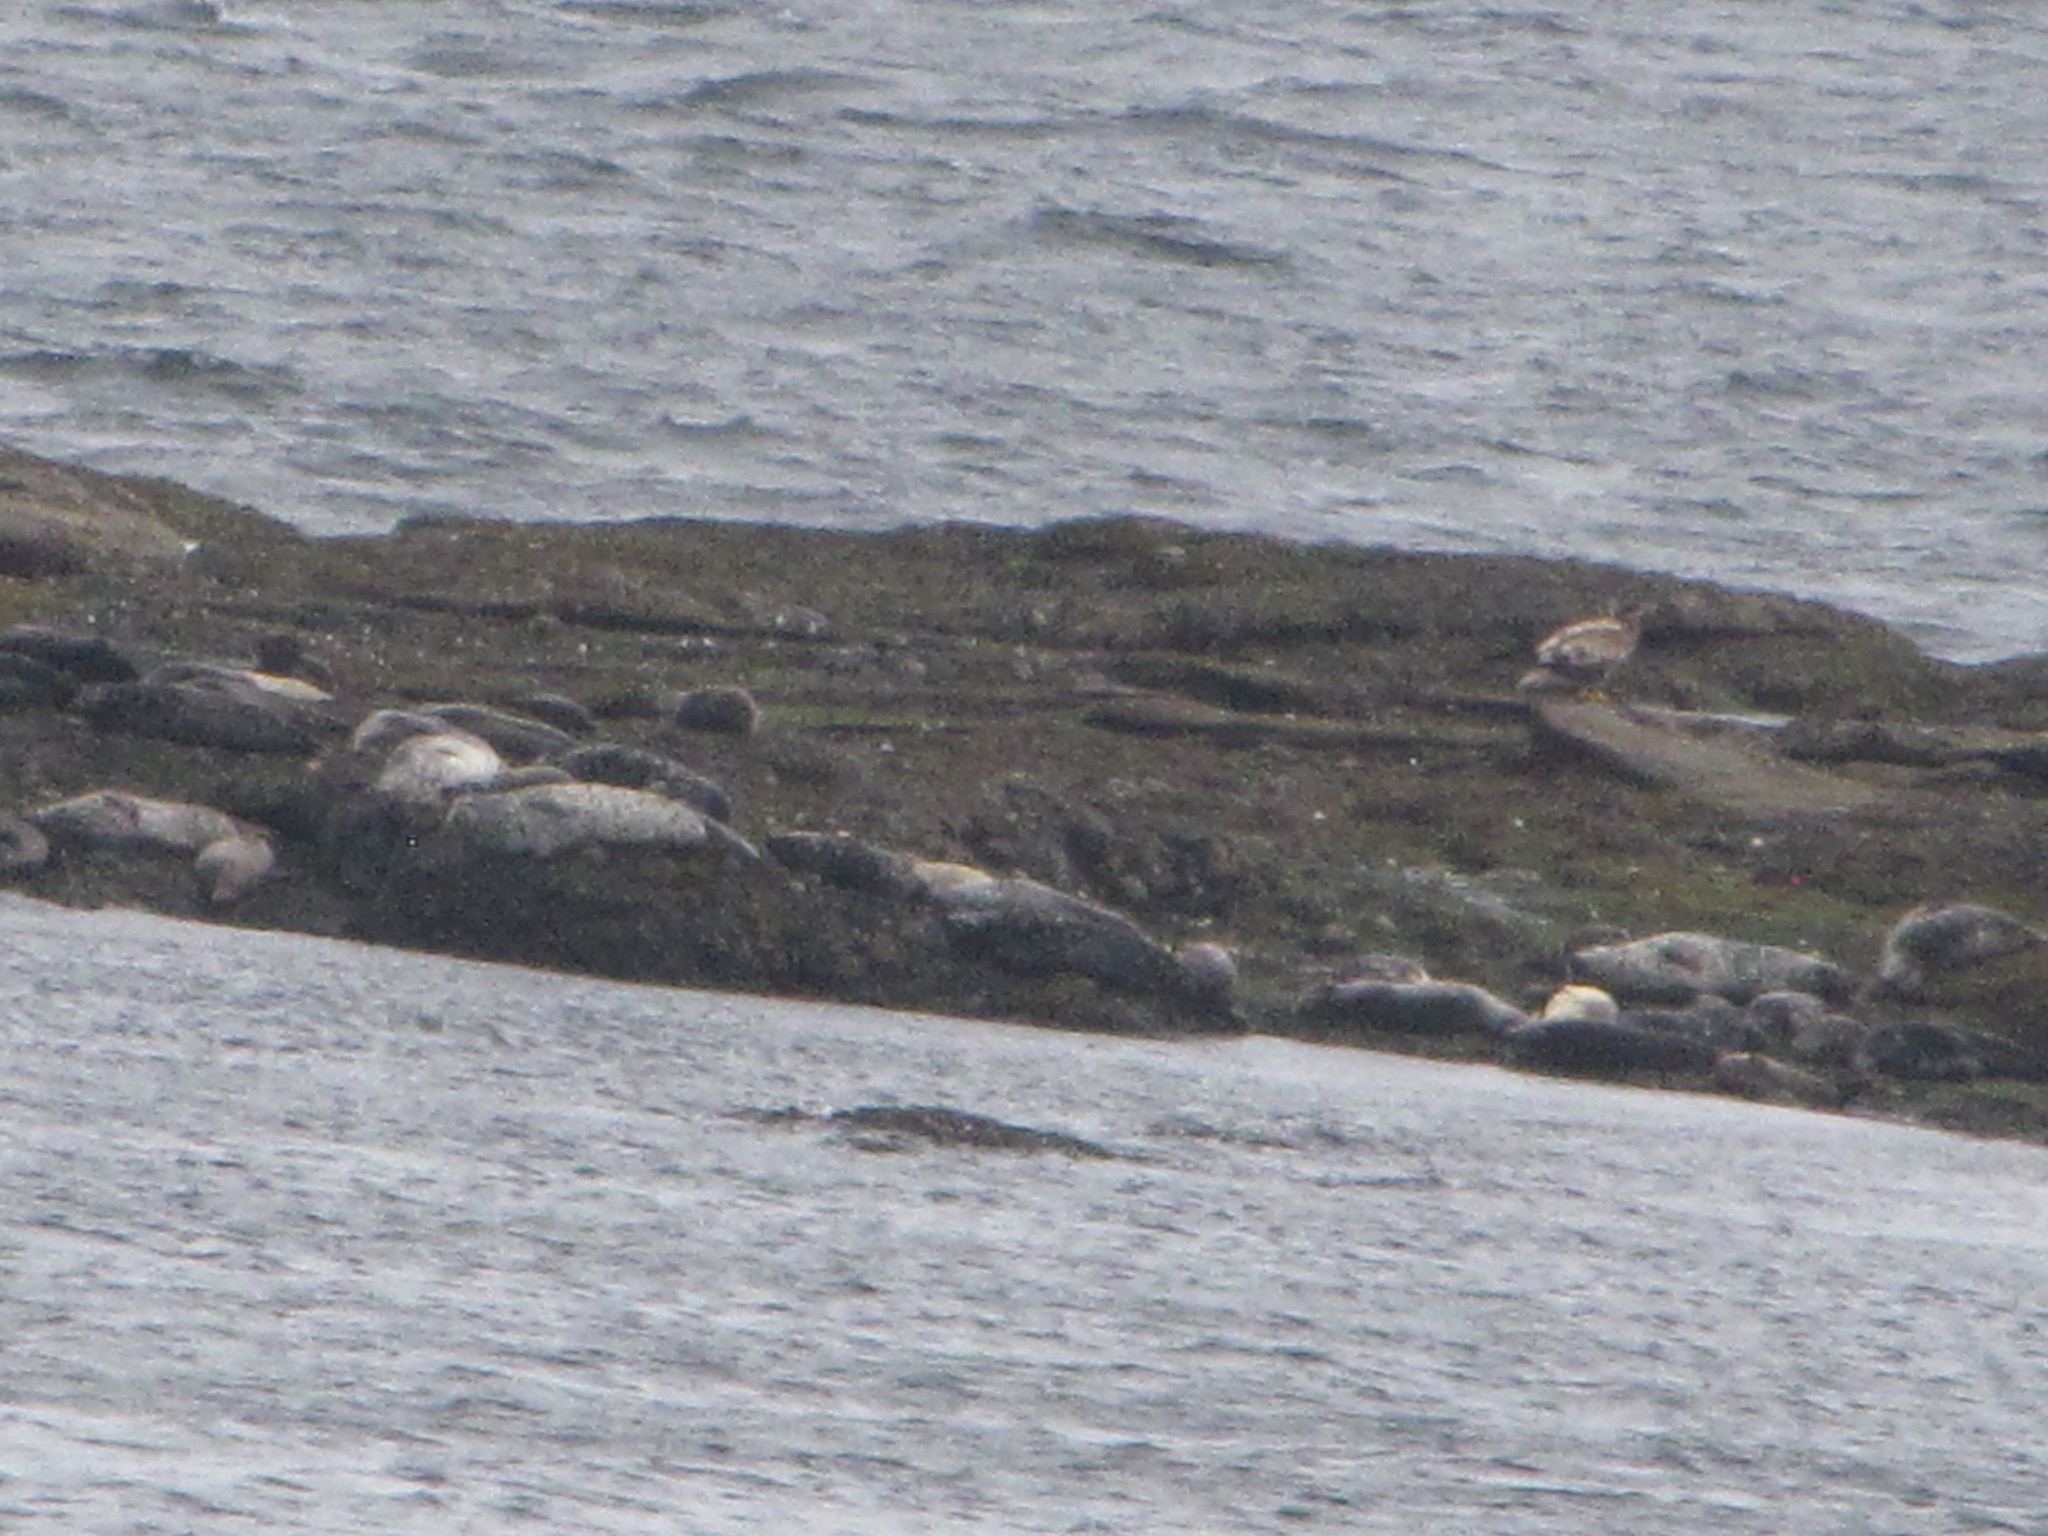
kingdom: Animalia
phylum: Chordata
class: Mammalia
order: Carnivora
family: Phocidae
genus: Phoca
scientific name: Phoca vitulina
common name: Harbor seal
